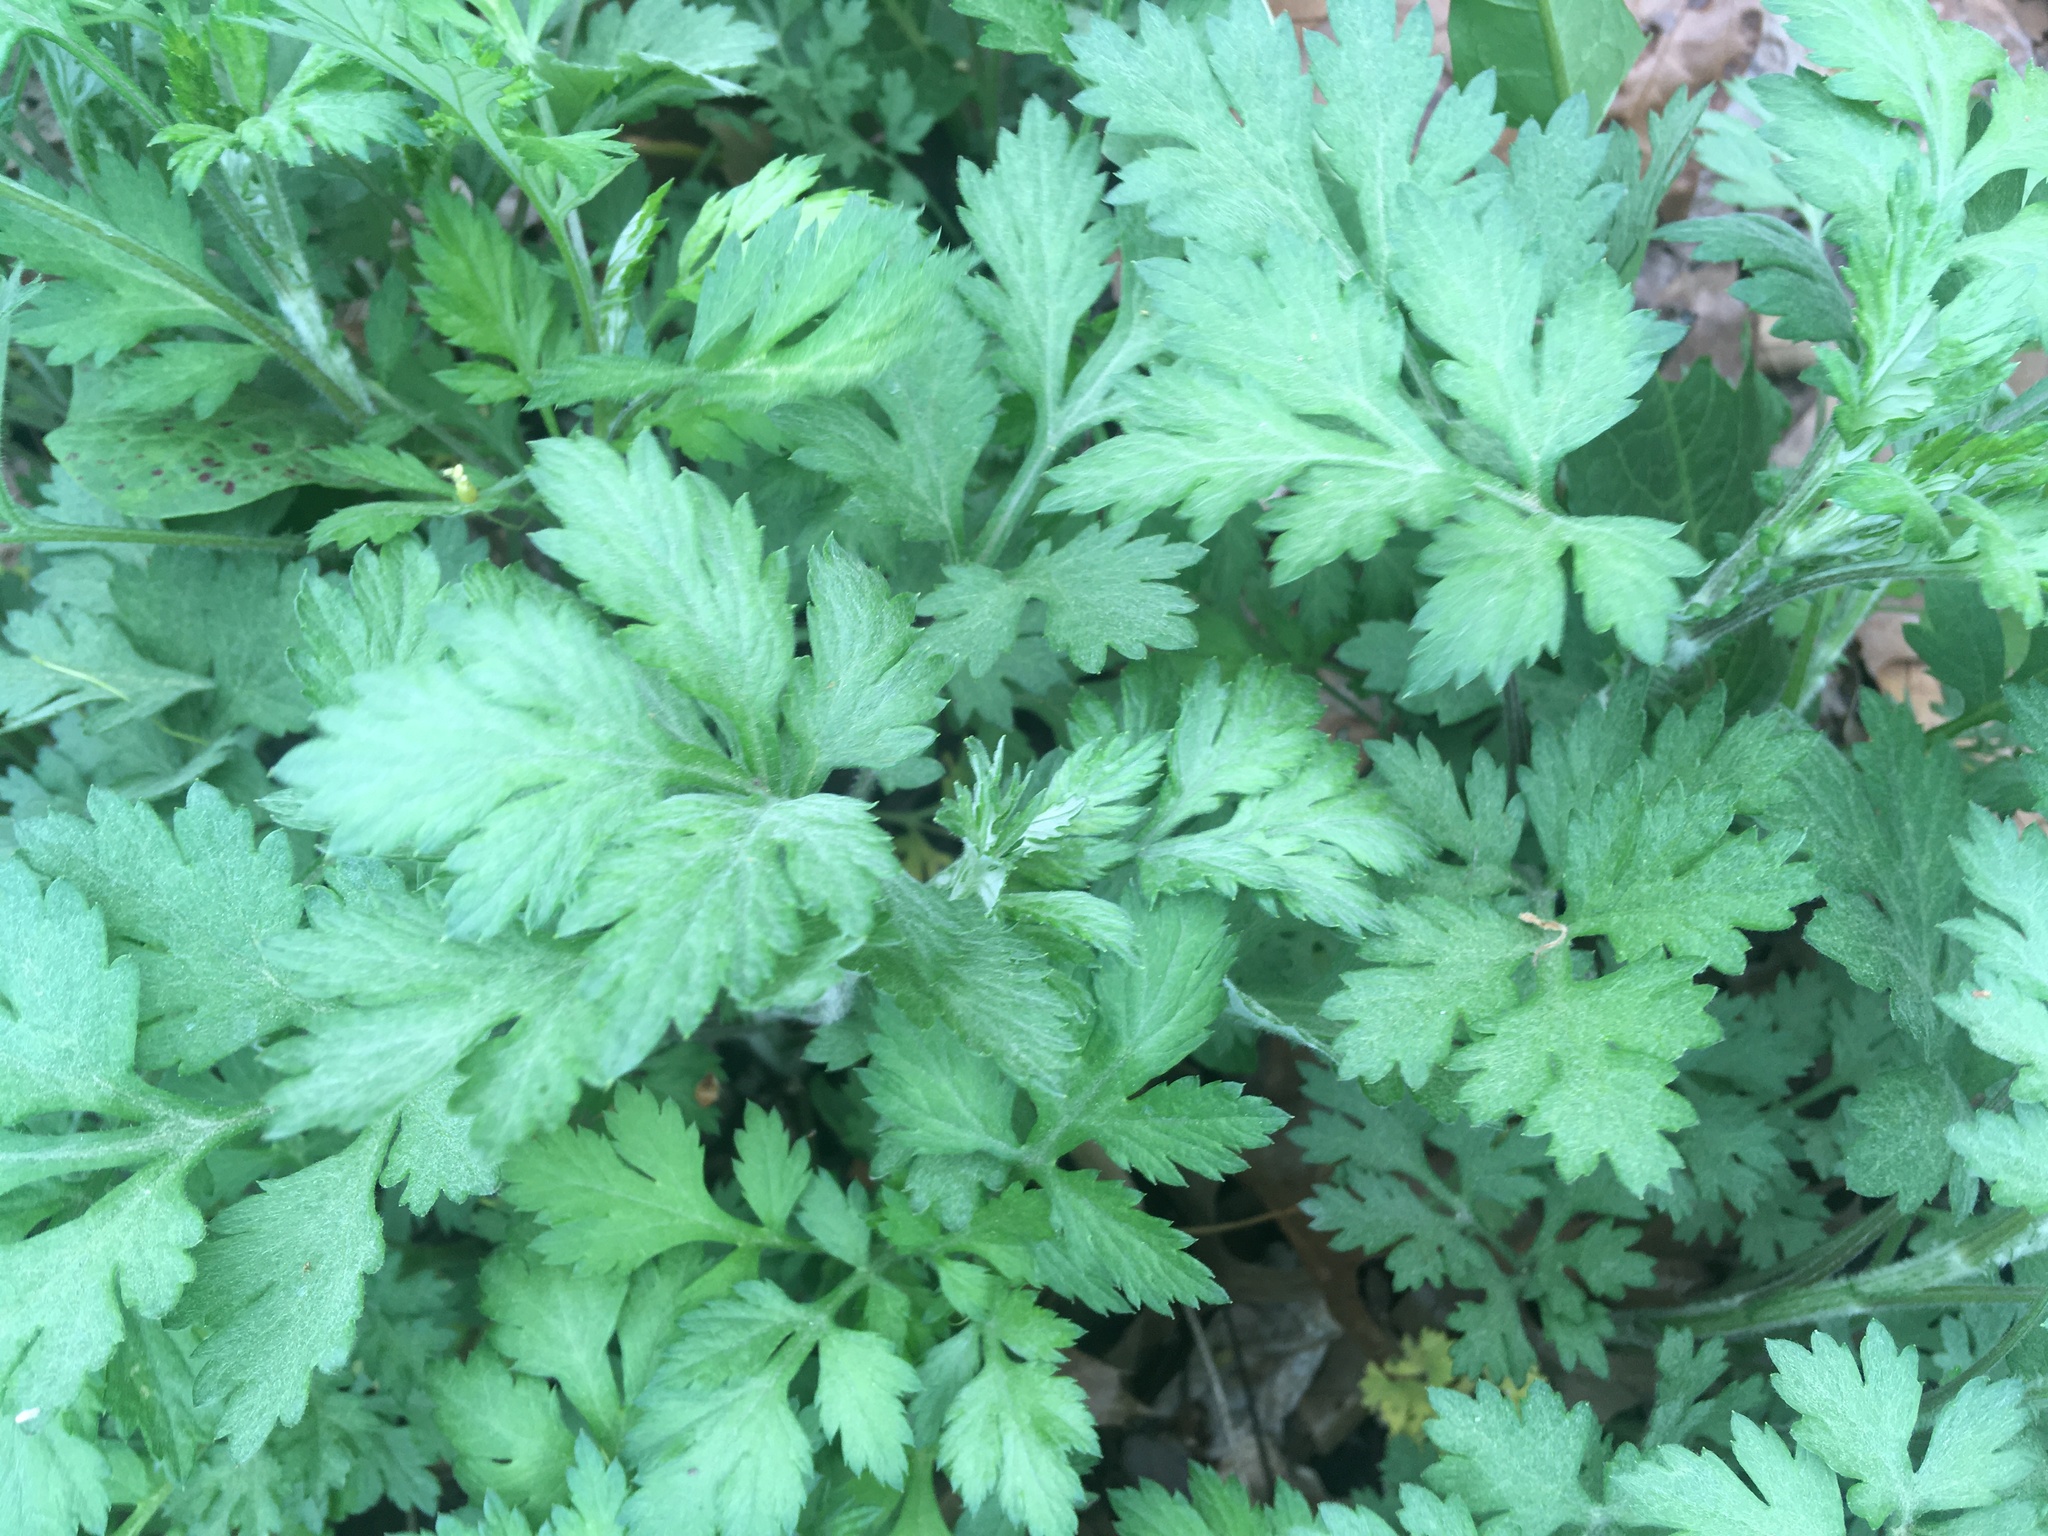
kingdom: Plantae
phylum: Tracheophyta
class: Magnoliopsida
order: Asterales
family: Asteraceae
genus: Artemisia
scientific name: Artemisia vulgaris
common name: Mugwort
